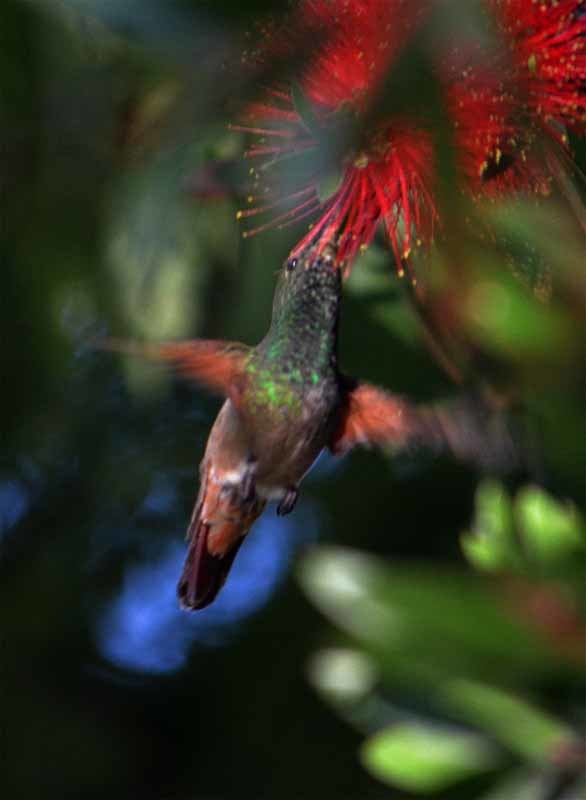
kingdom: Animalia
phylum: Chordata
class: Aves
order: Apodiformes
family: Trochilidae
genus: Saucerottia
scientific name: Saucerottia beryllina
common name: Berylline hummingbird
